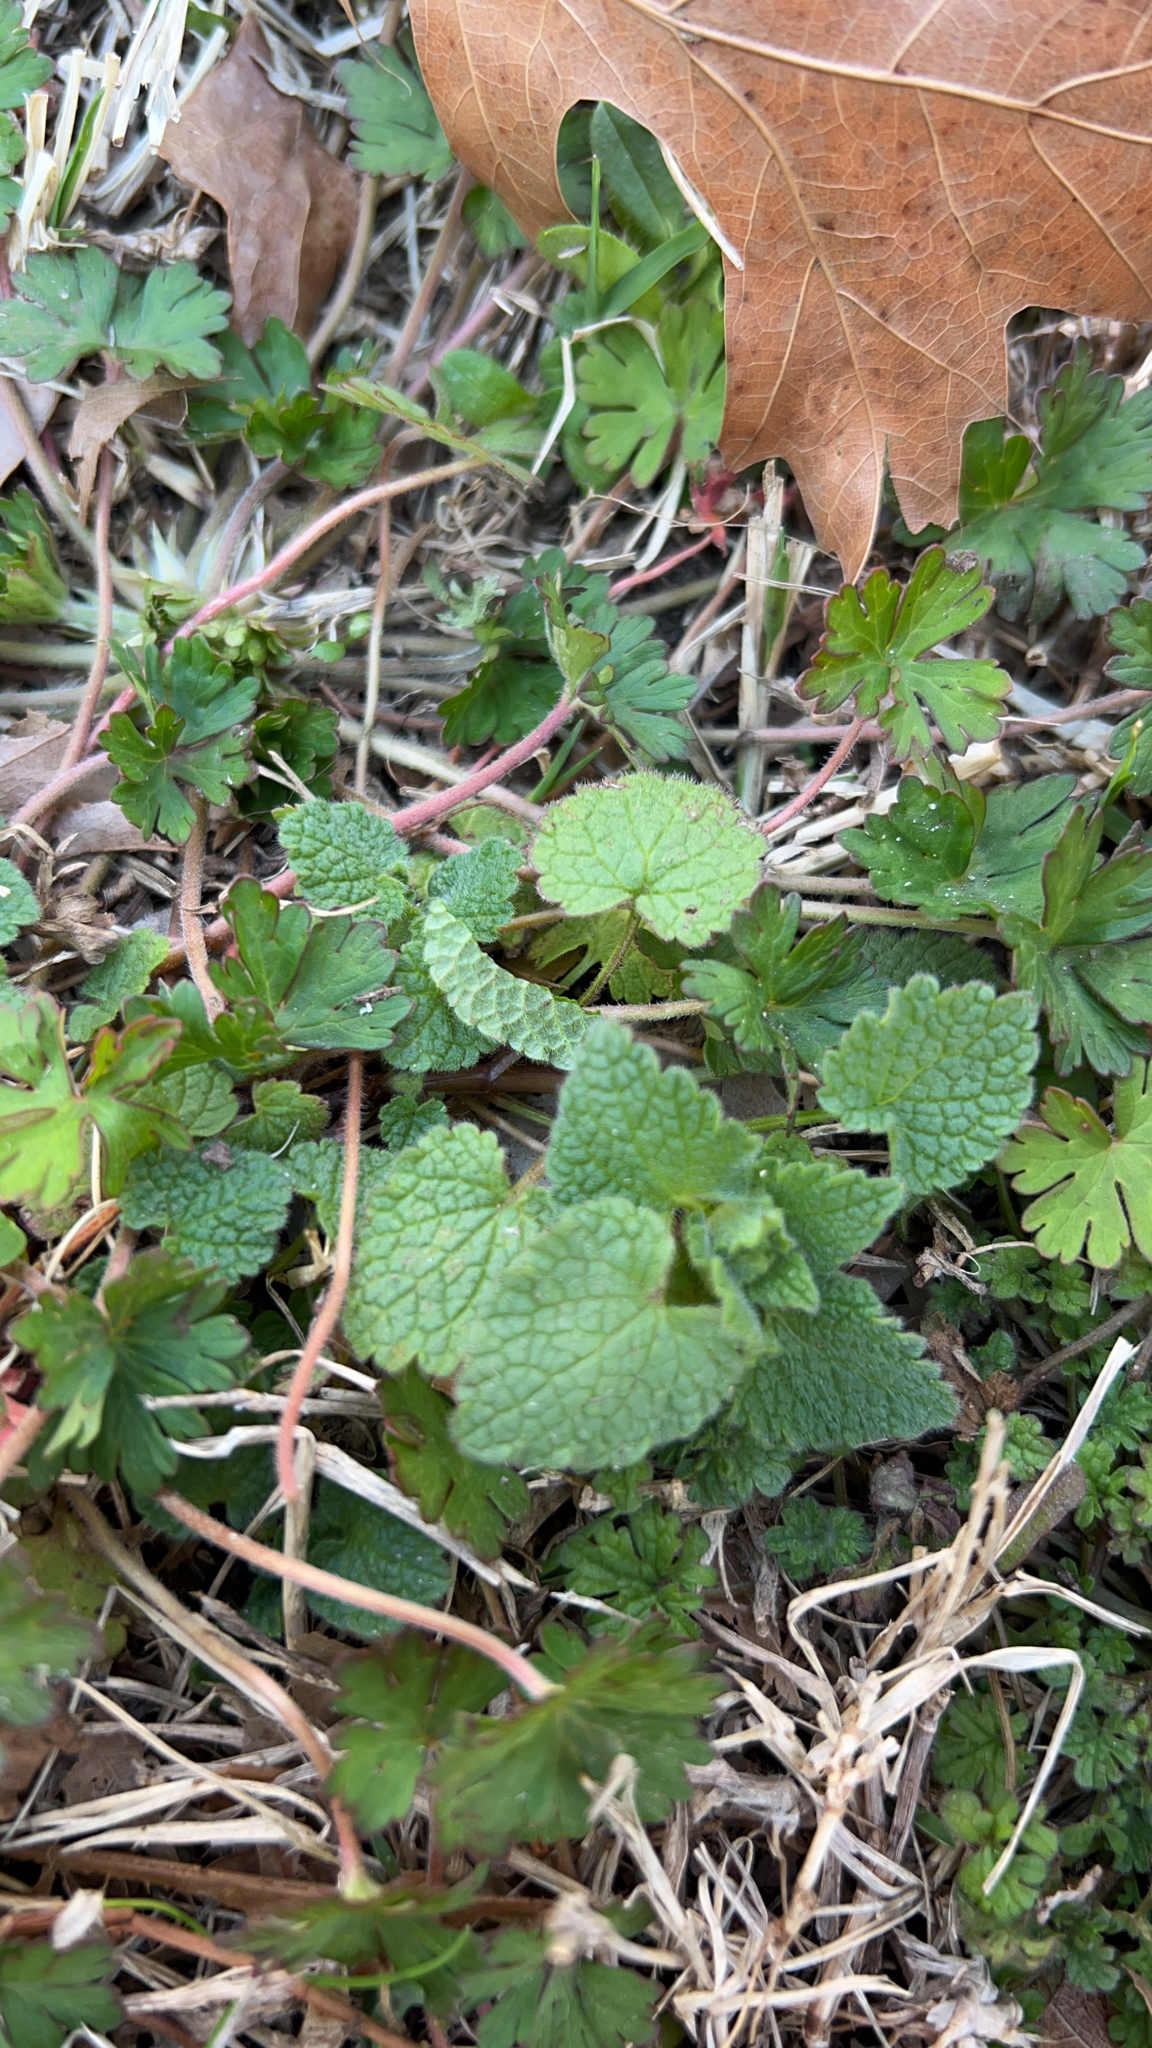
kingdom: Plantae
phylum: Tracheophyta
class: Magnoliopsida
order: Lamiales
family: Lamiaceae
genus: Lamium
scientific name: Lamium purpureum
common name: Red dead-nettle
